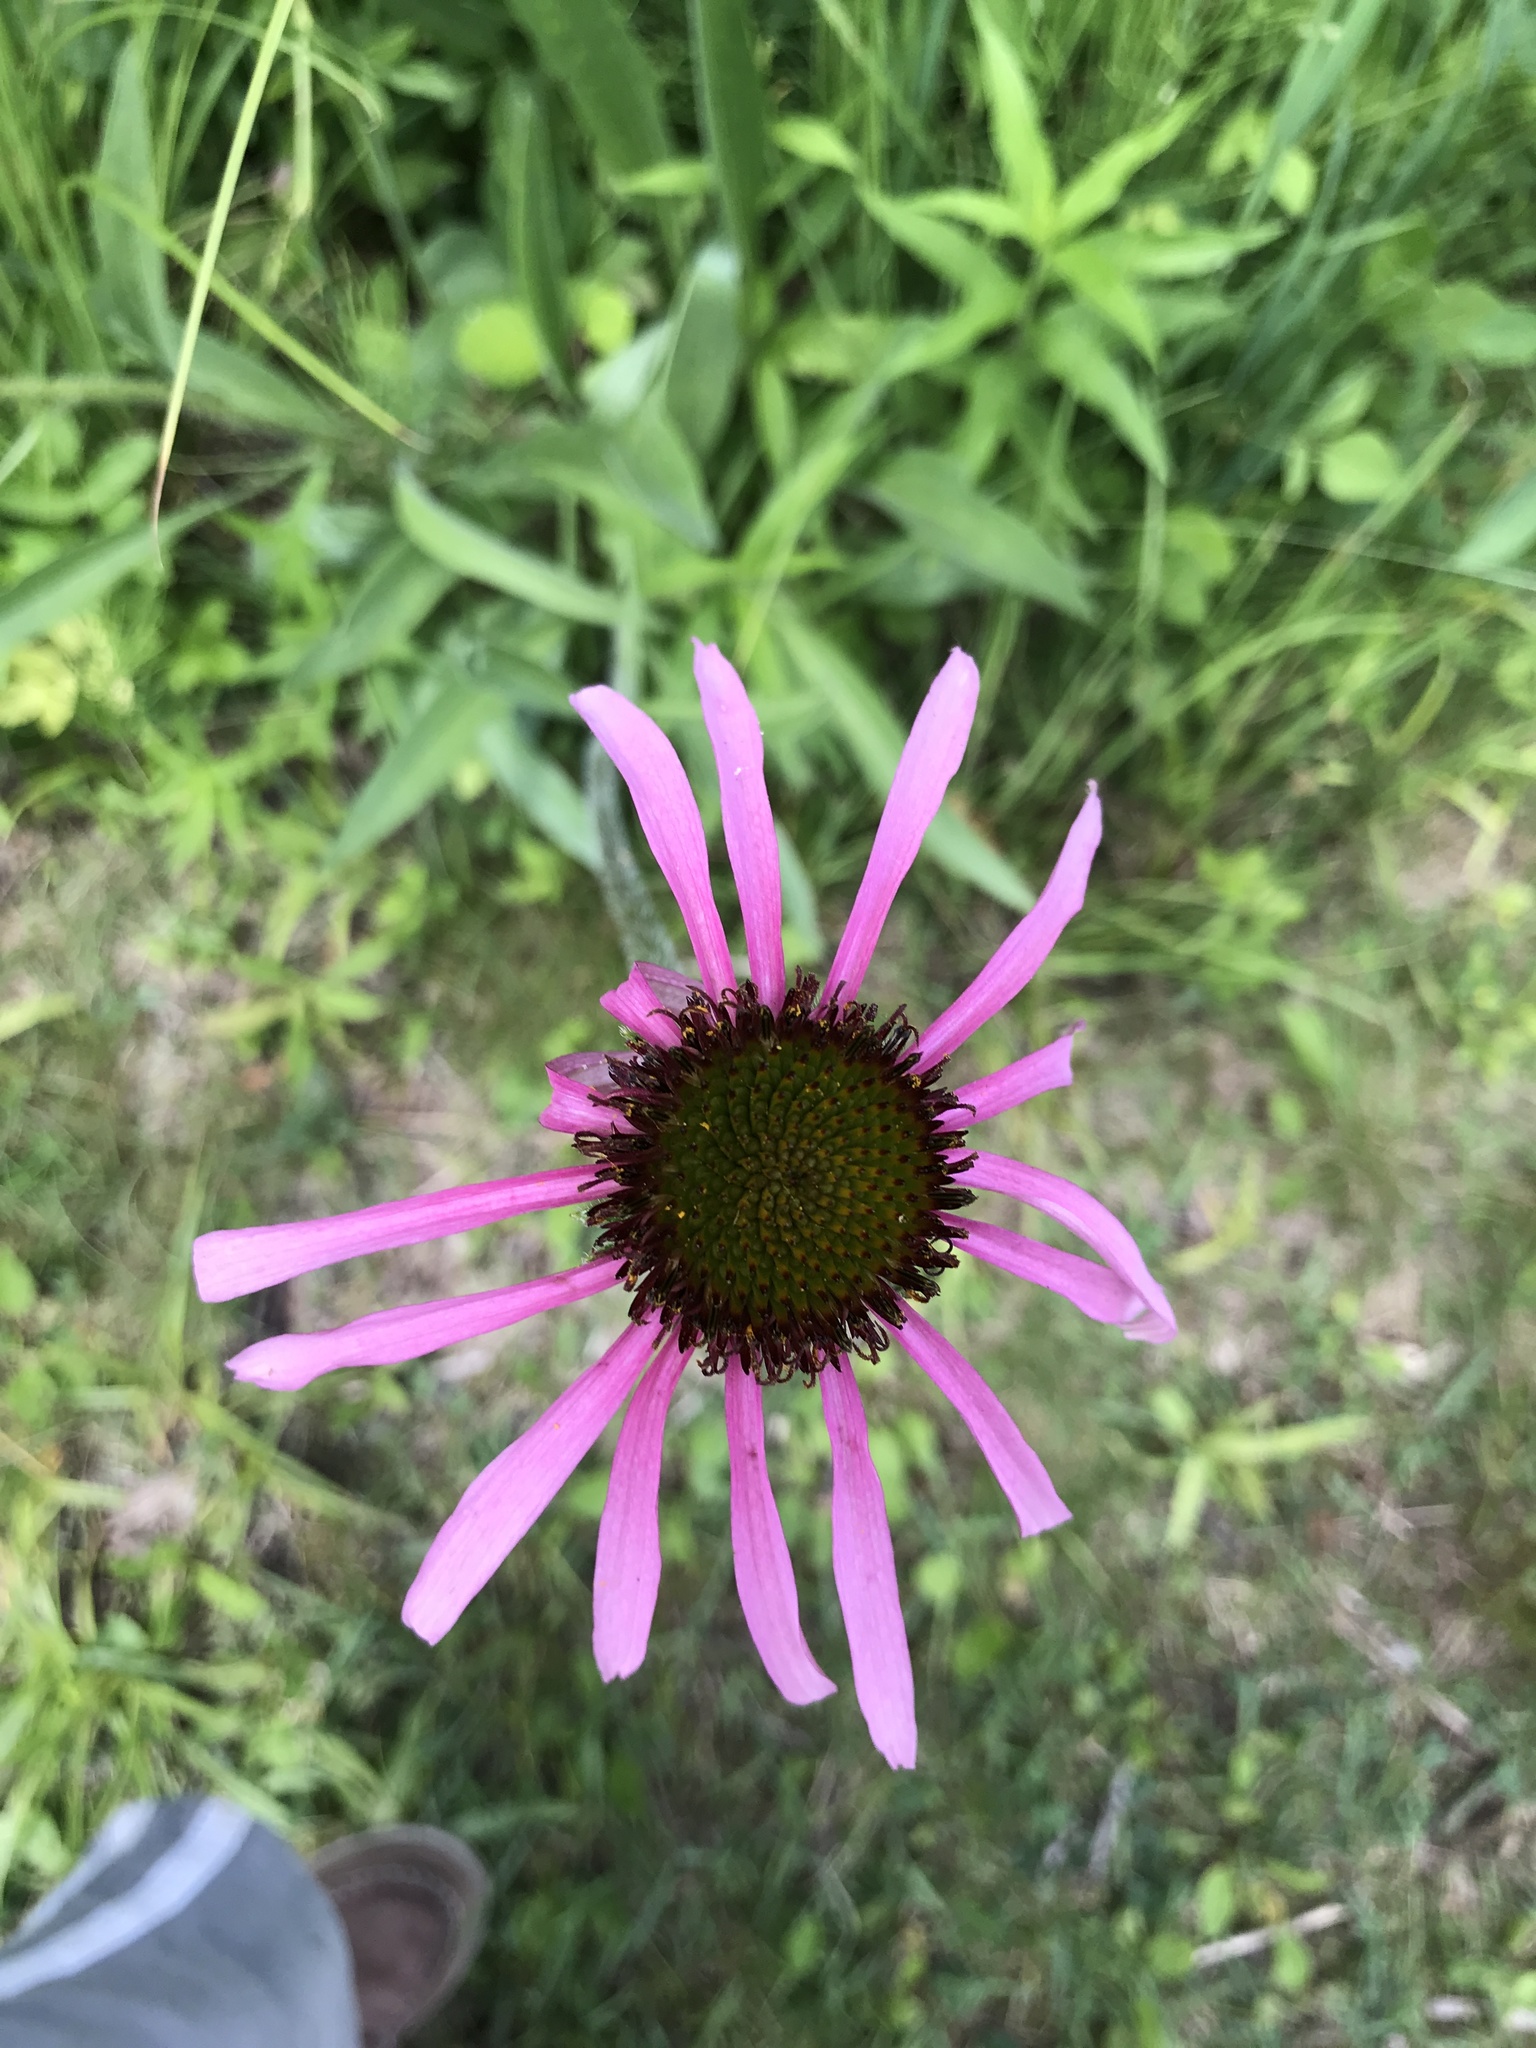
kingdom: Plantae
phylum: Tracheophyta
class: Magnoliopsida
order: Asterales
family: Asteraceae
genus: Echinacea
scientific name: Echinacea pallida
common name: Pale echinacea
